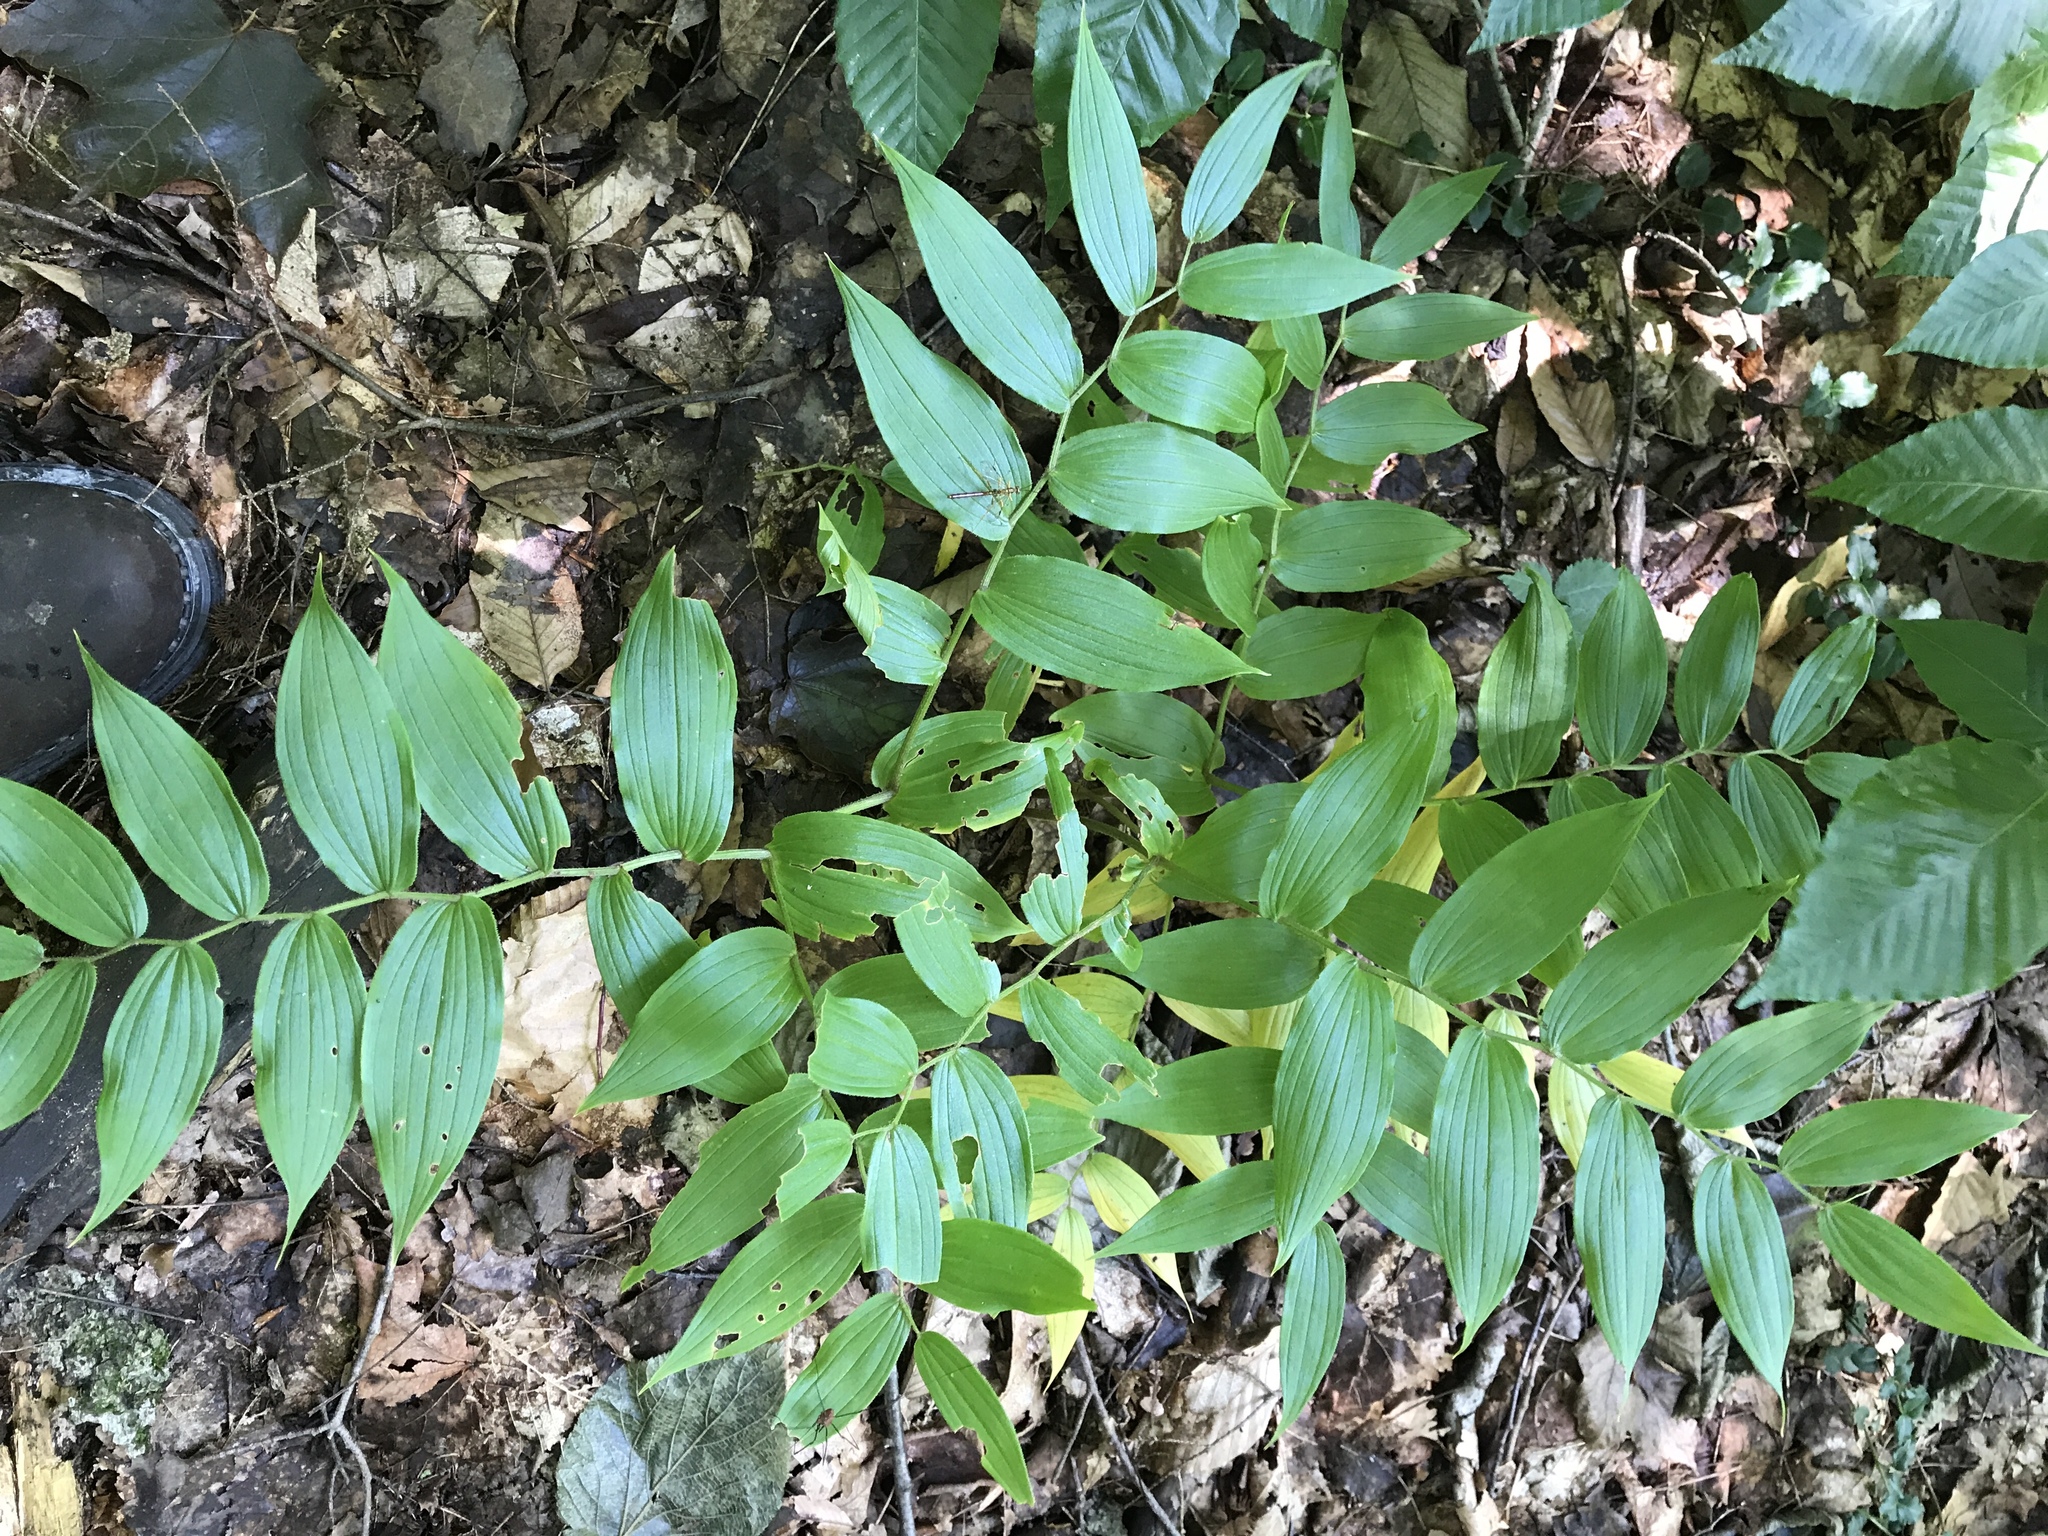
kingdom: Plantae
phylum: Tracheophyta
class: Liliopsida
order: Liliales
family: Liliaceae
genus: Streptopus
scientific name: Streptopus lanceolatus
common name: Rose mandarin
